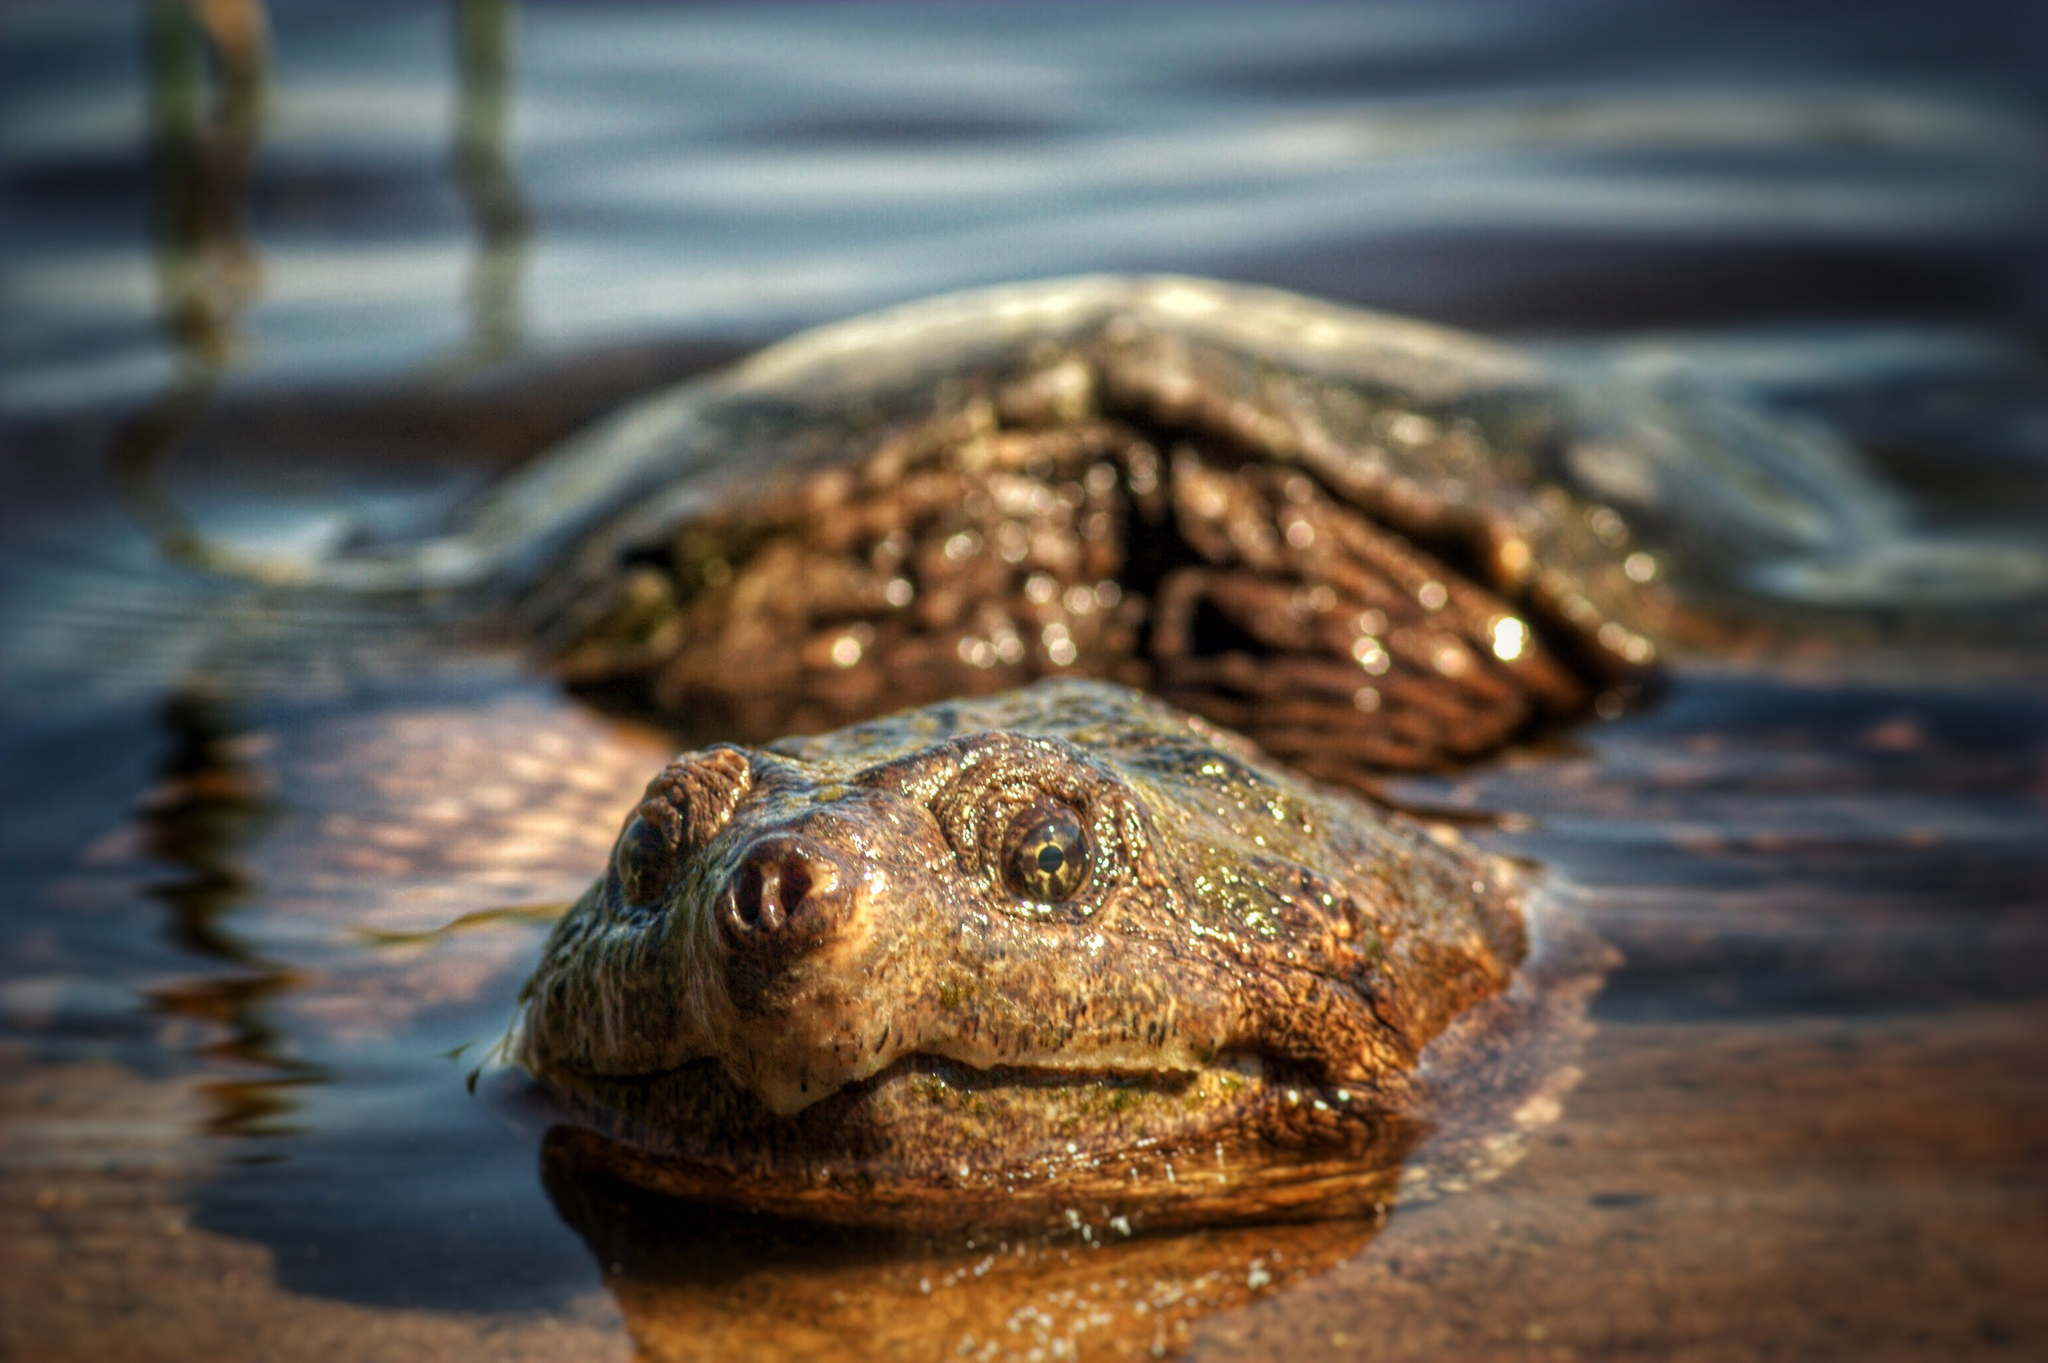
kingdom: Animalia
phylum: Chordata
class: Testudines
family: Chelydridae
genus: Chelydra
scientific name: Chelydra serpentina
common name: Common snapping turtle
